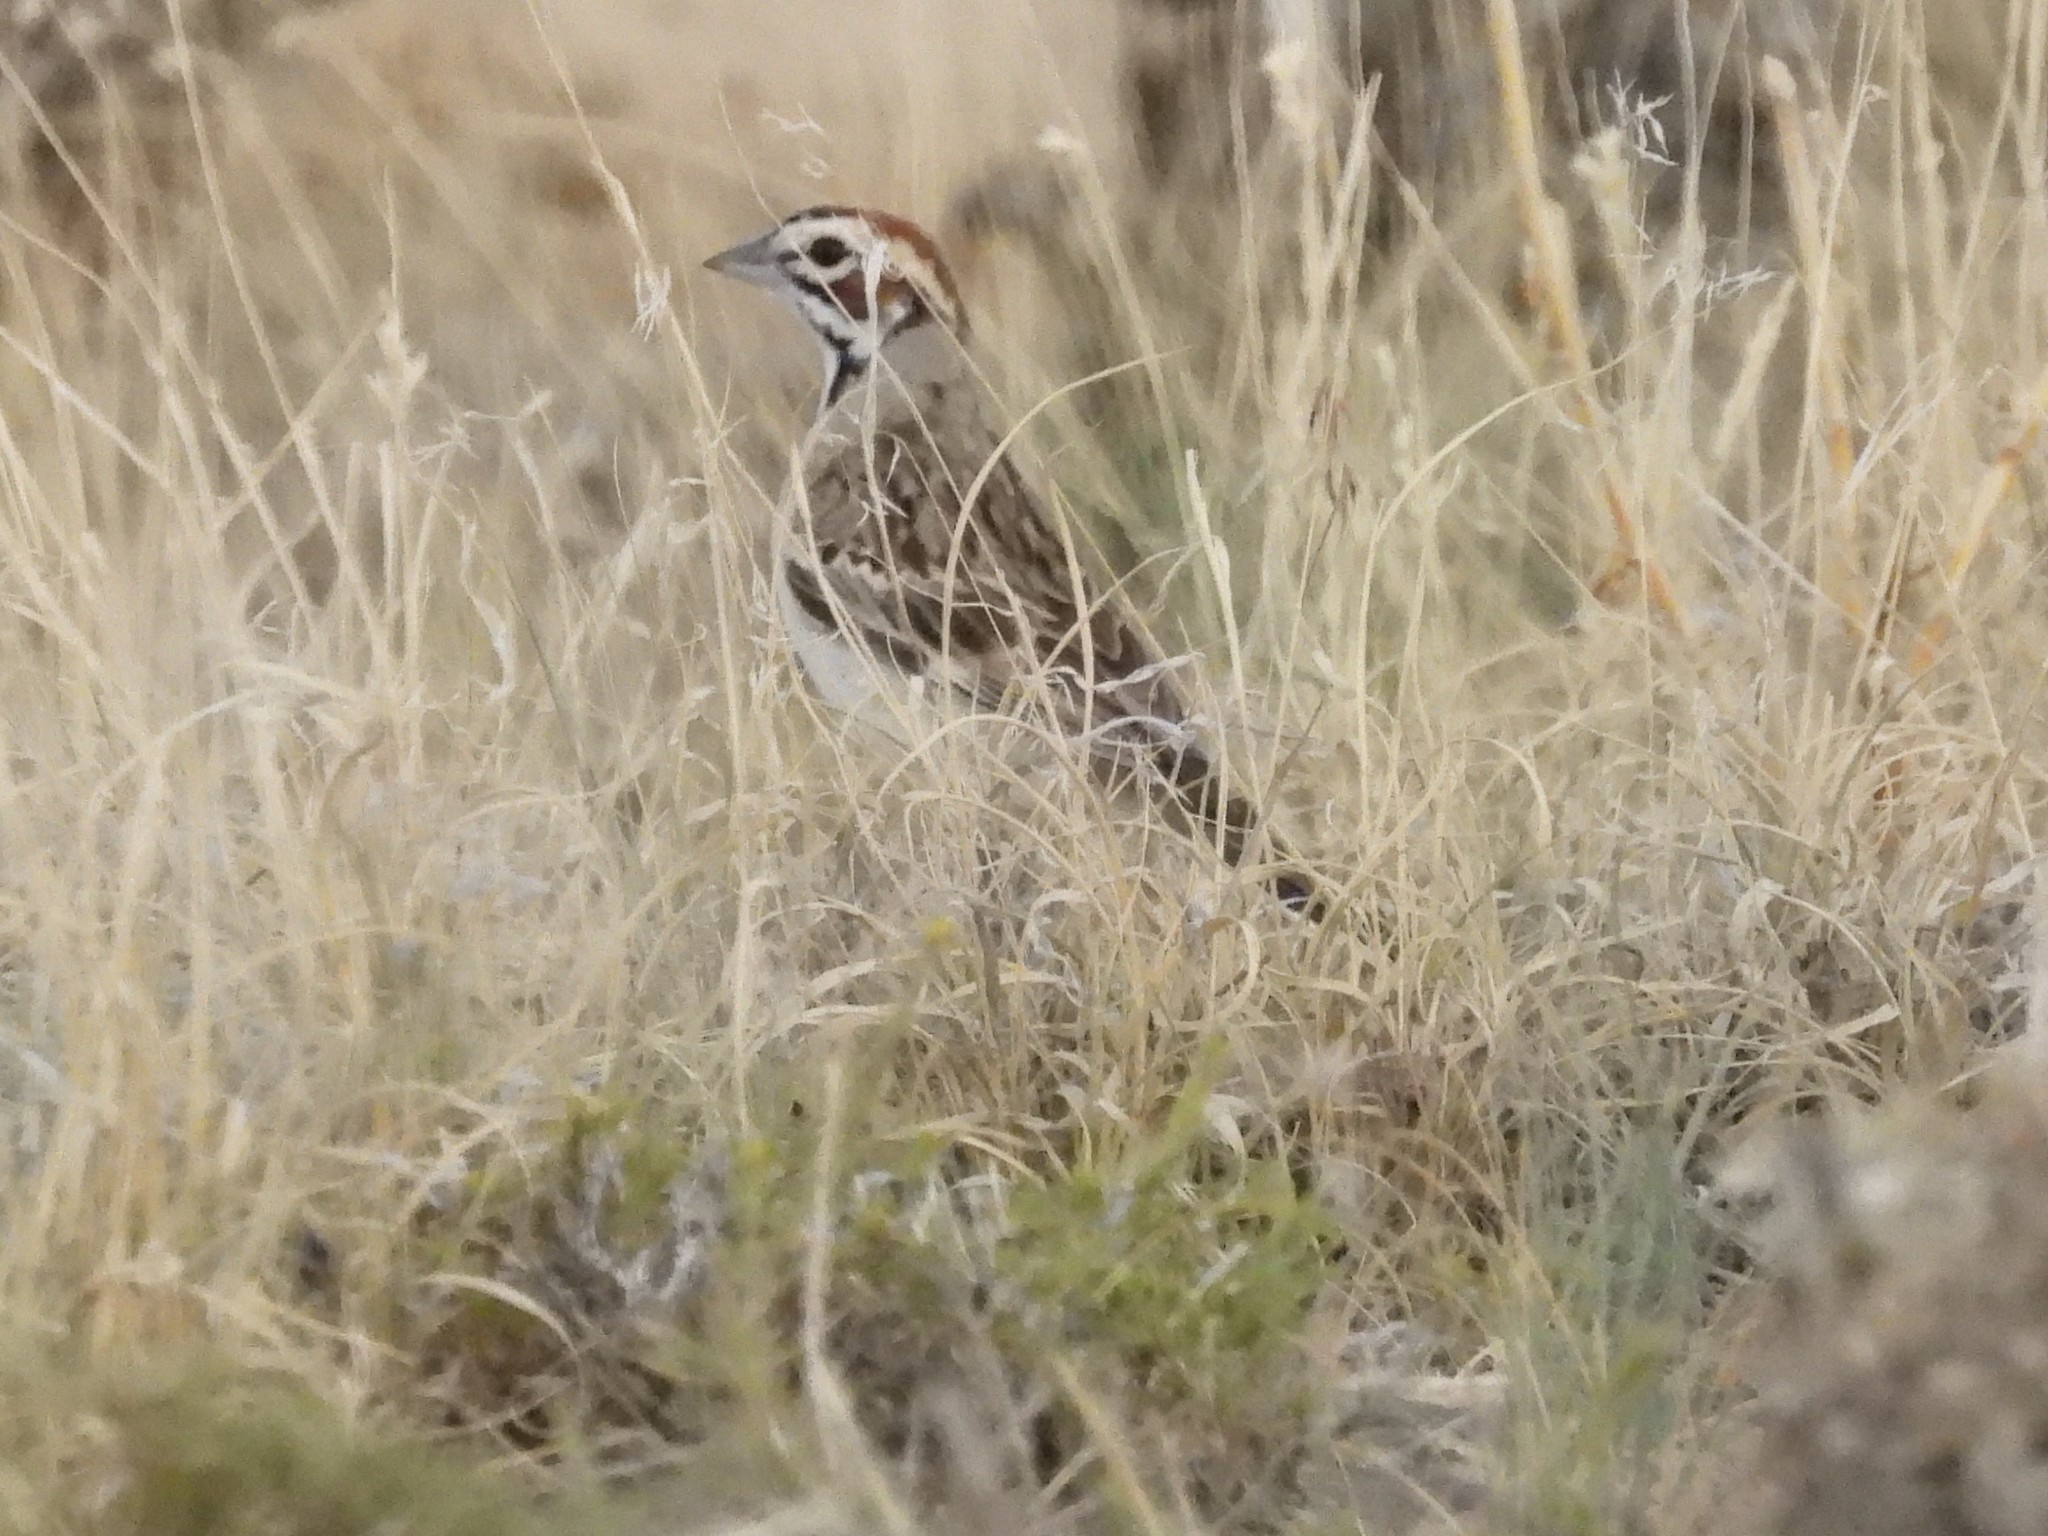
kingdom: Animalia
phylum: Chordata
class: Aves
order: Passeriformes
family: Passerellidae
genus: Chondestes
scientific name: Chondestes grammacus
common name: Lark sparrow
